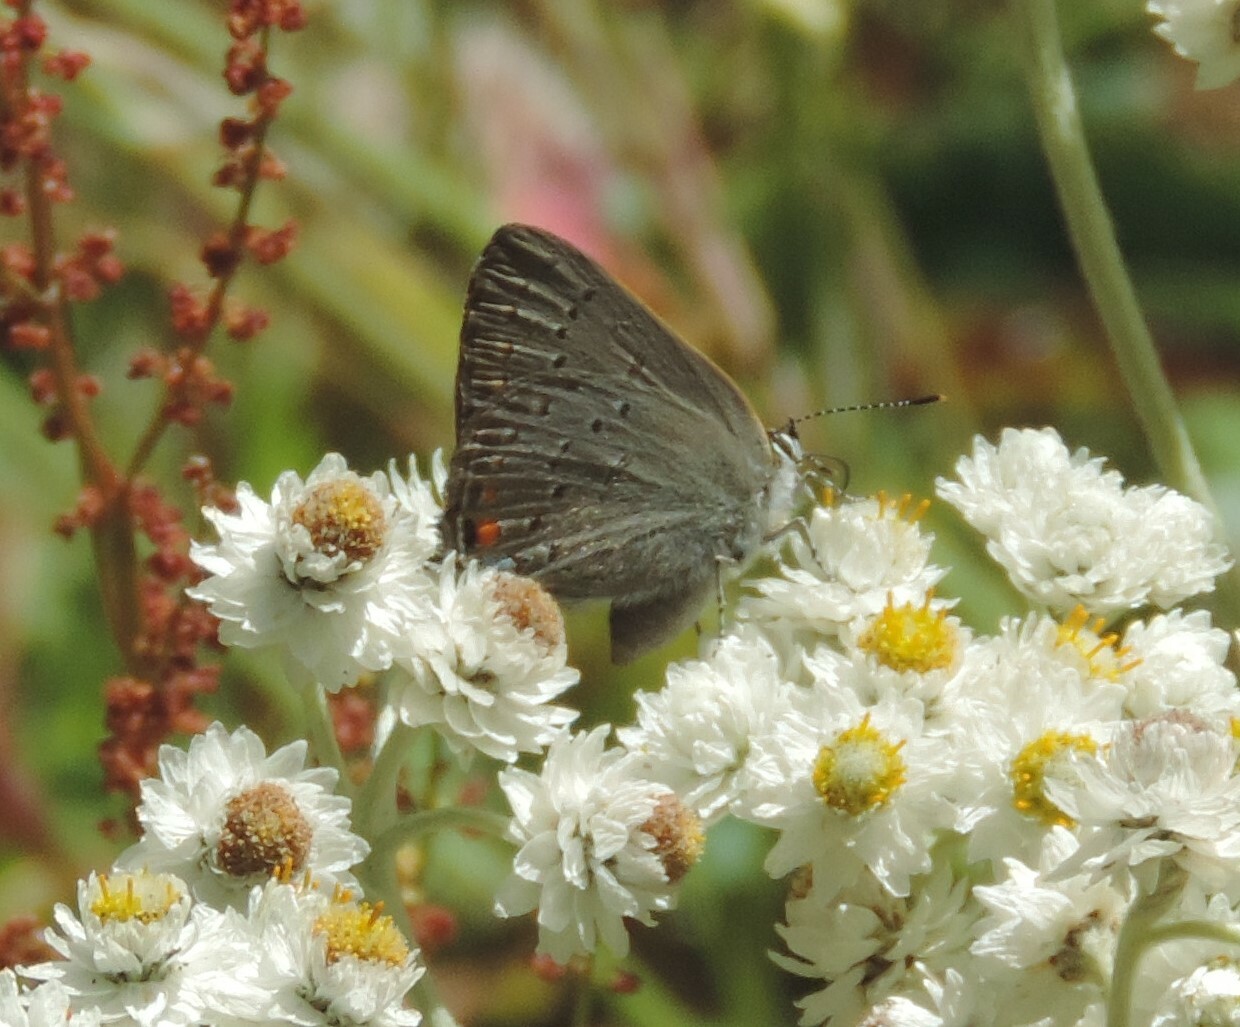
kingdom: Animalia
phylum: Arthropoda
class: Insecta
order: Lepidoptera
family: Lycaenidae
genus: Strymon
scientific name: Strymon sylvinus
